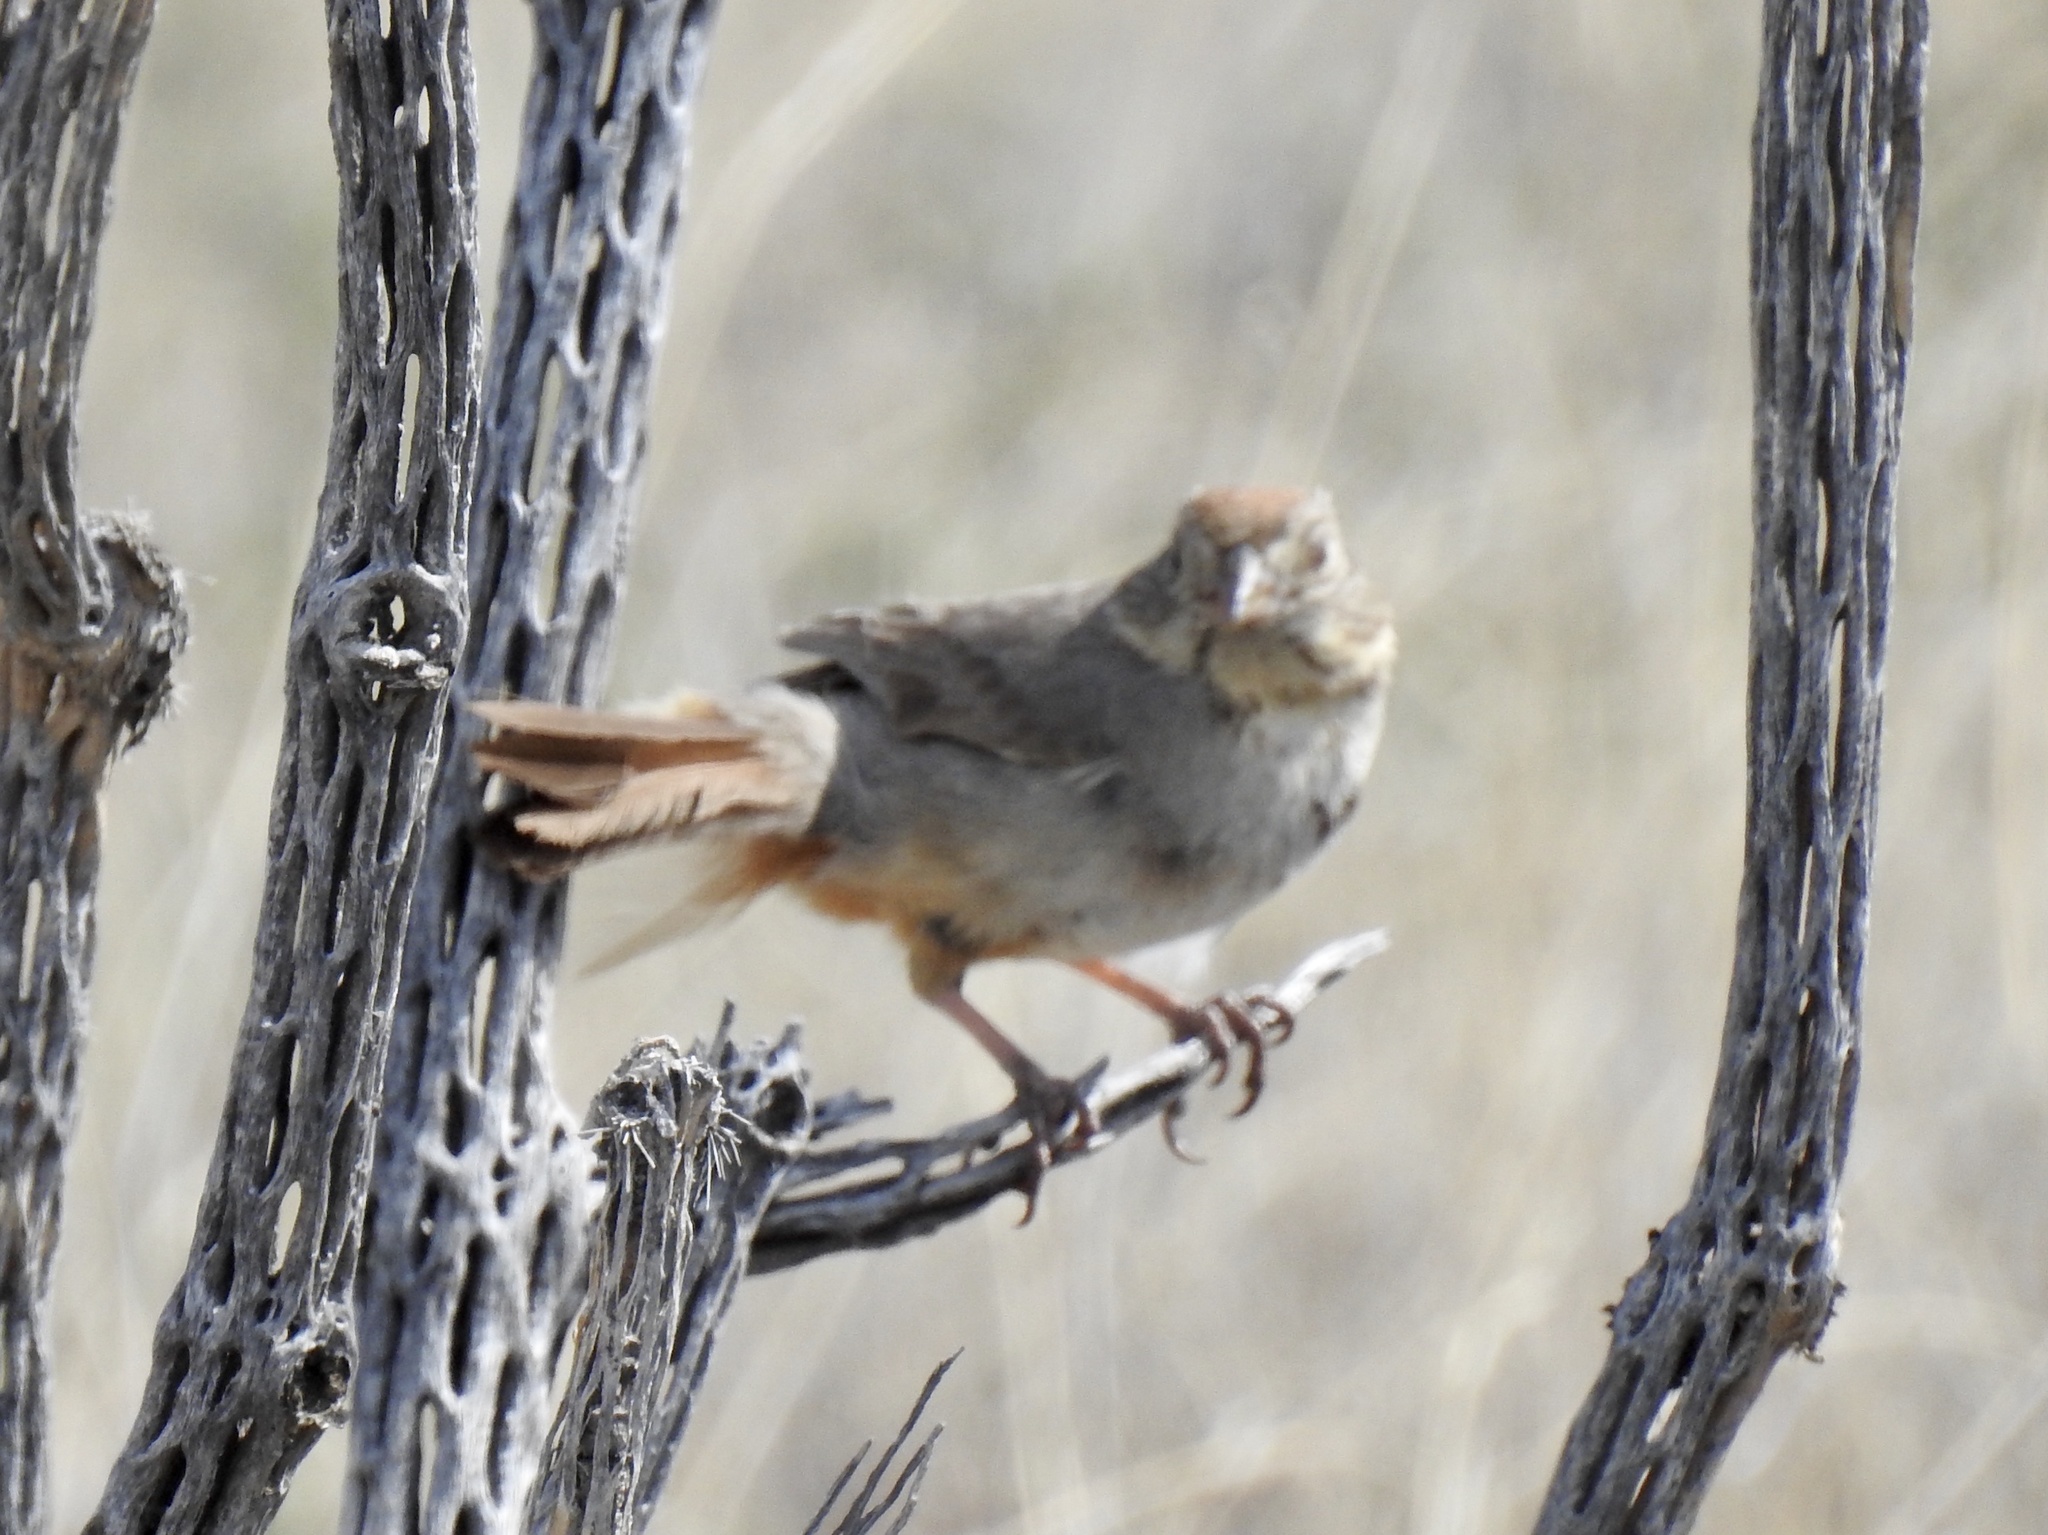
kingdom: Animalia
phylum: Chordata
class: Aves
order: Passeriformes
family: Passerellidae
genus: Melozone
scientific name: Melozone fusca
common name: Canyon towhee
